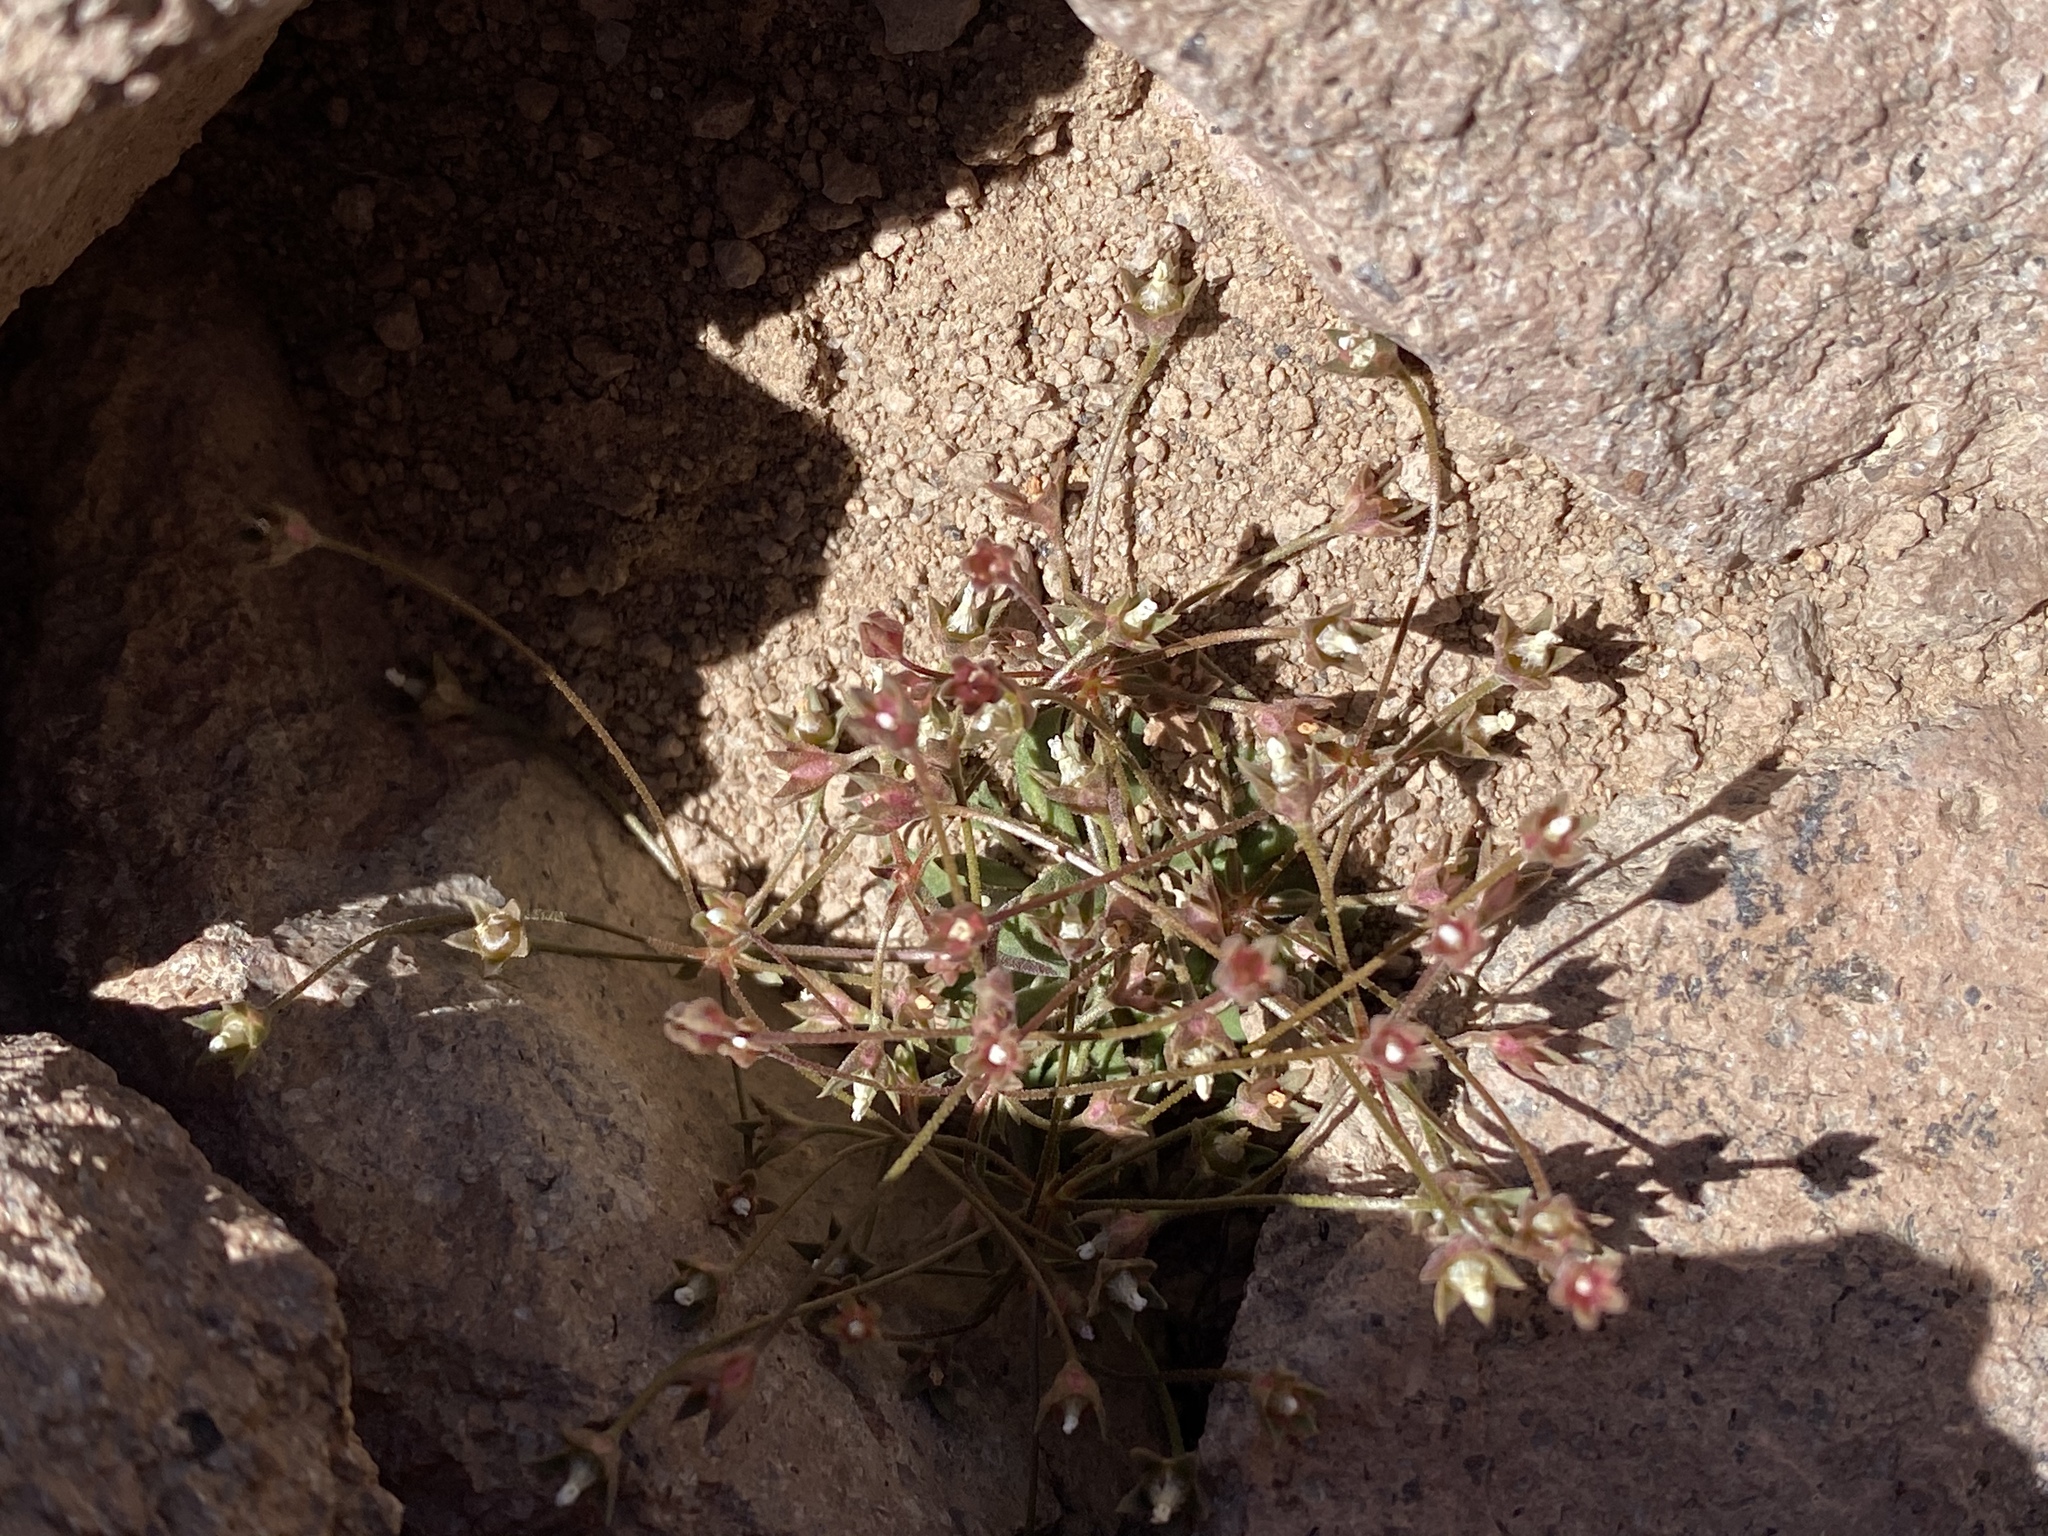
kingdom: Plantae
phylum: Tracheophyta
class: Magnoliopsida
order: Ericales
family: Primulaceae
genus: Androsace
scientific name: Androsace septentrionalis
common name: Hairy northern fairy-candelabra
